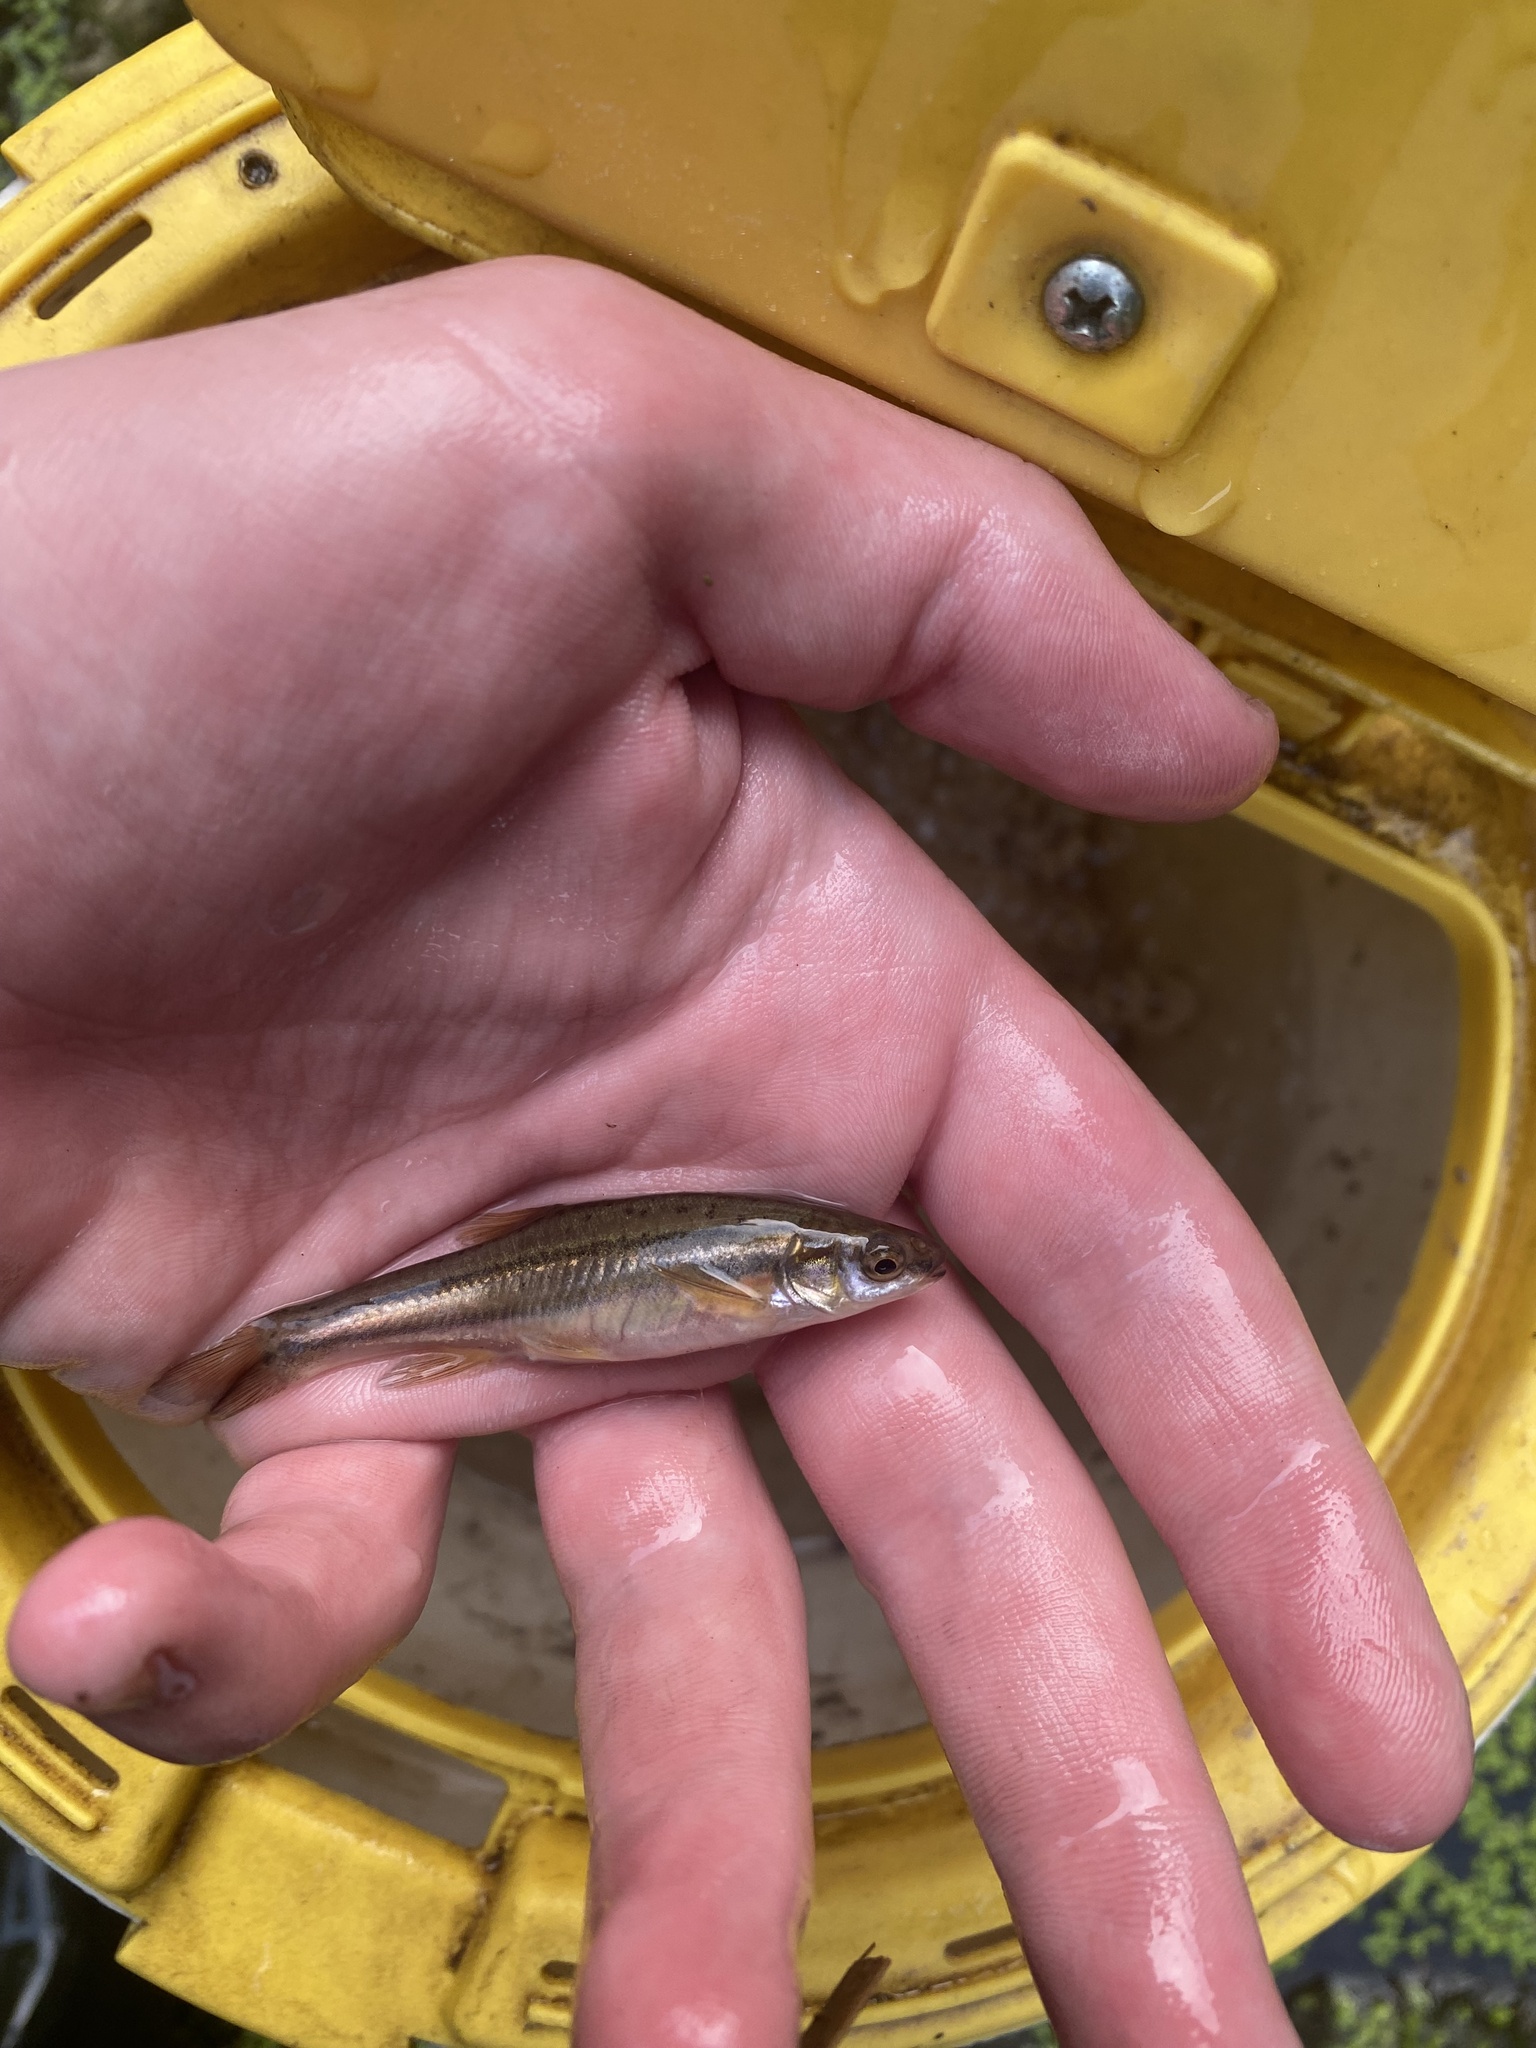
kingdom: Animalia
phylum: Chordata
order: Cypriniformes
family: Cyprinidae
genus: Chrosomus
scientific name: Chrosomus erythrogaster
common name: Southern redbelly dace
